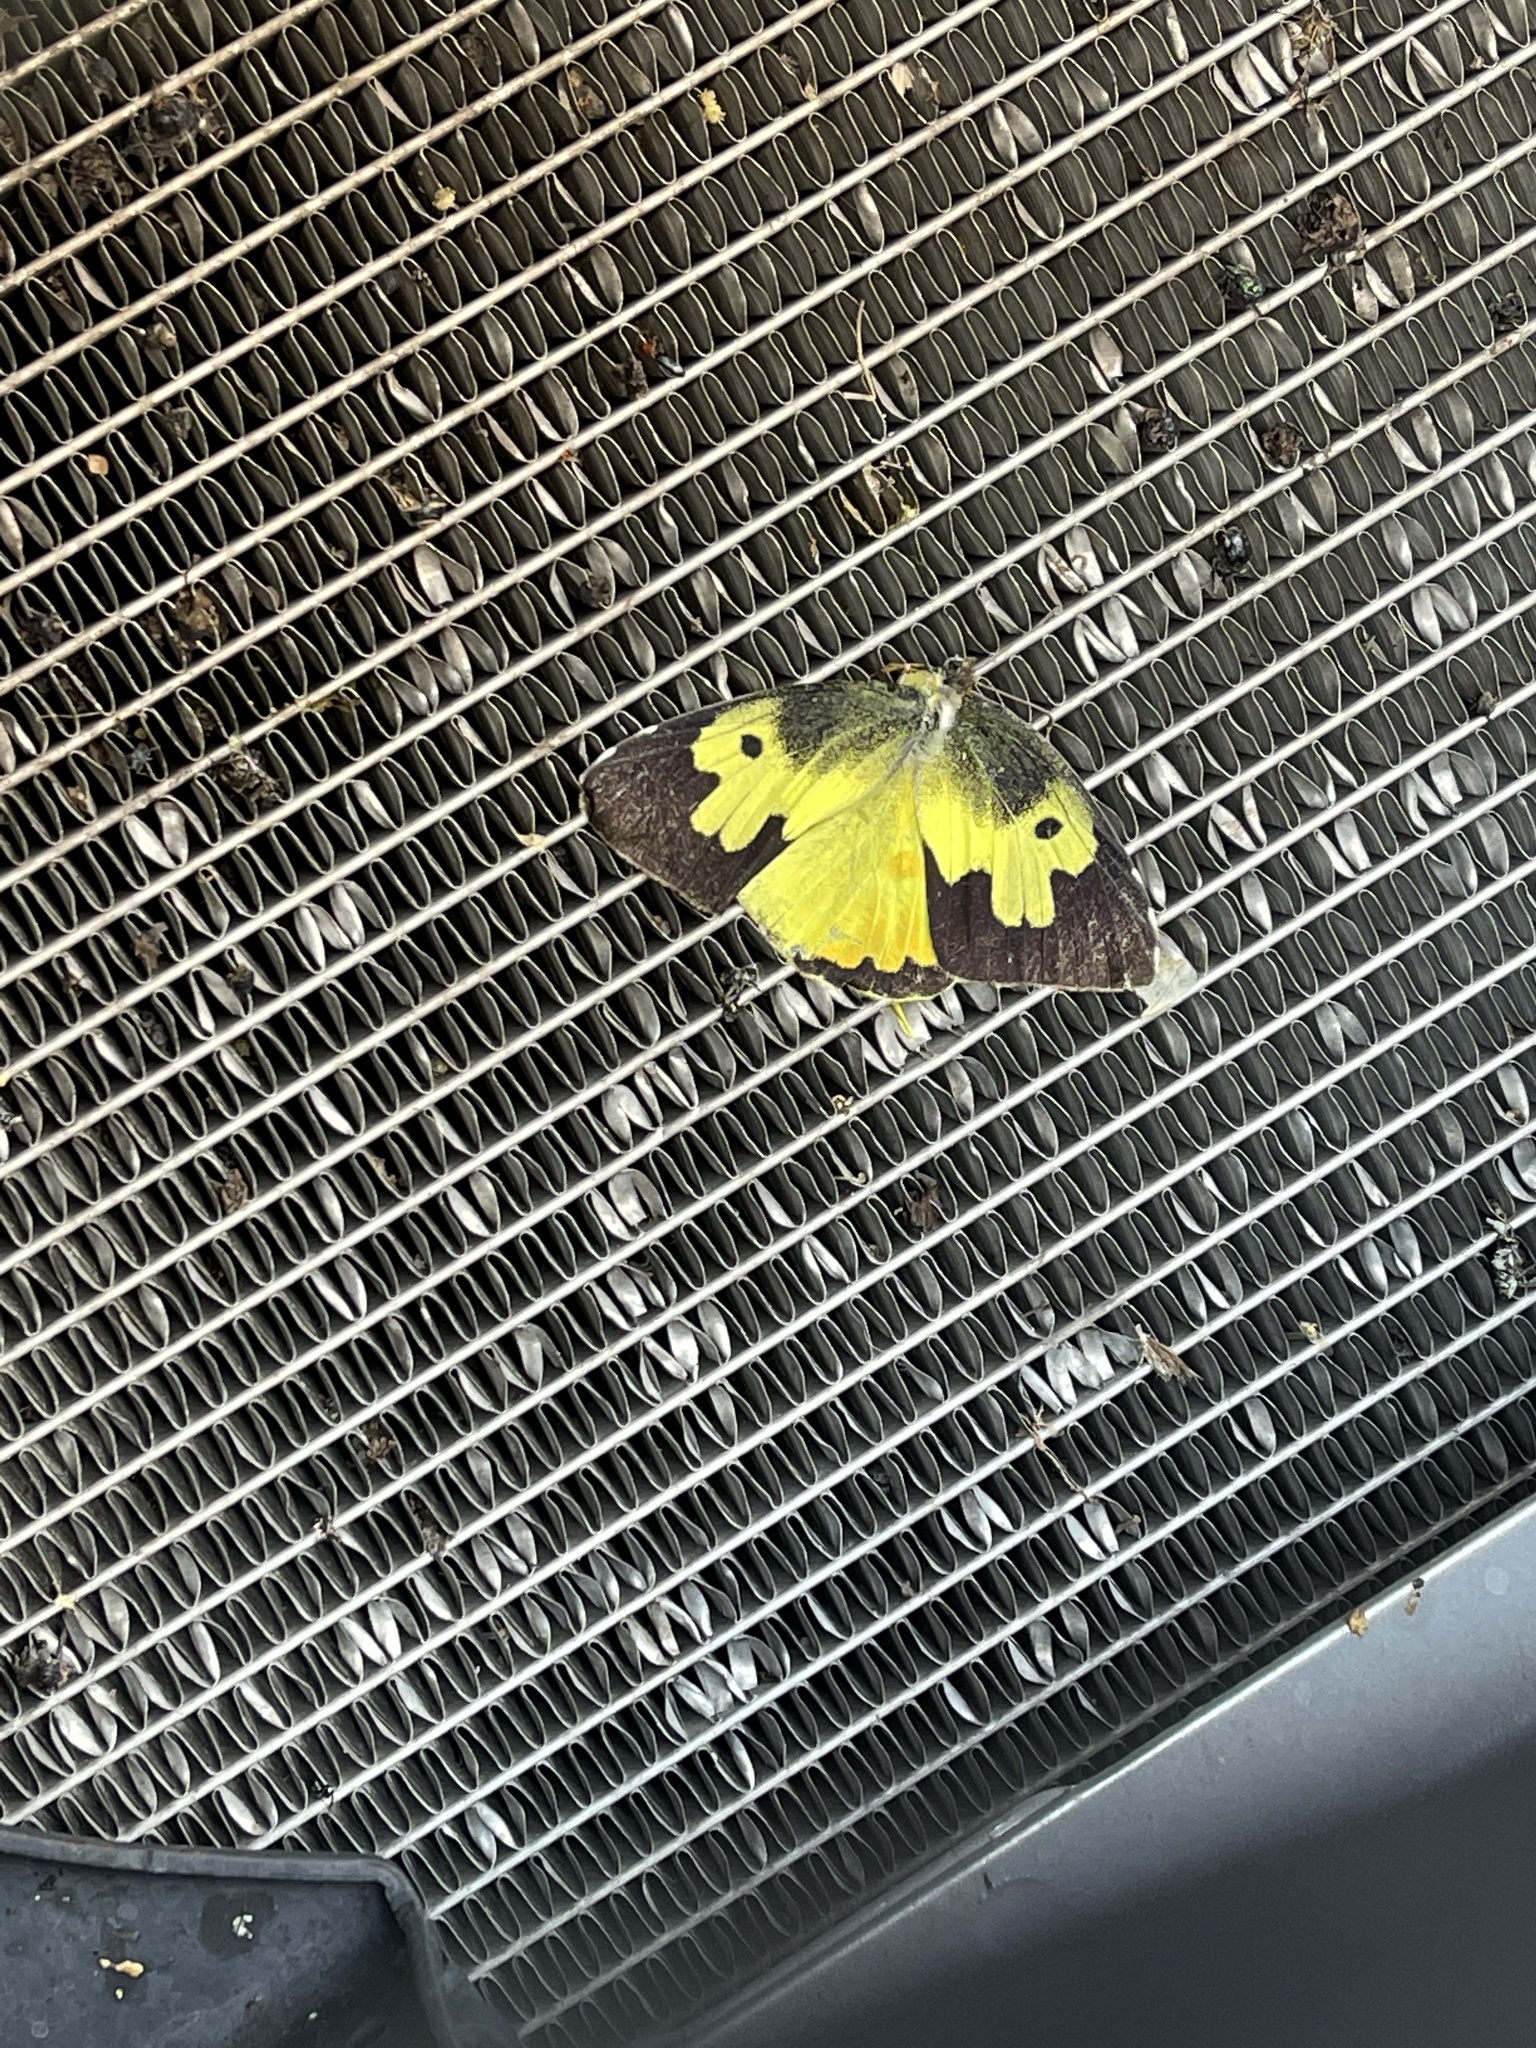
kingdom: Animalia
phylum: Arthropoda
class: Insecta
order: Lepidoptera
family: Pieridae
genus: Zerene
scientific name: Zerene cesonia
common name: Southern dogface
